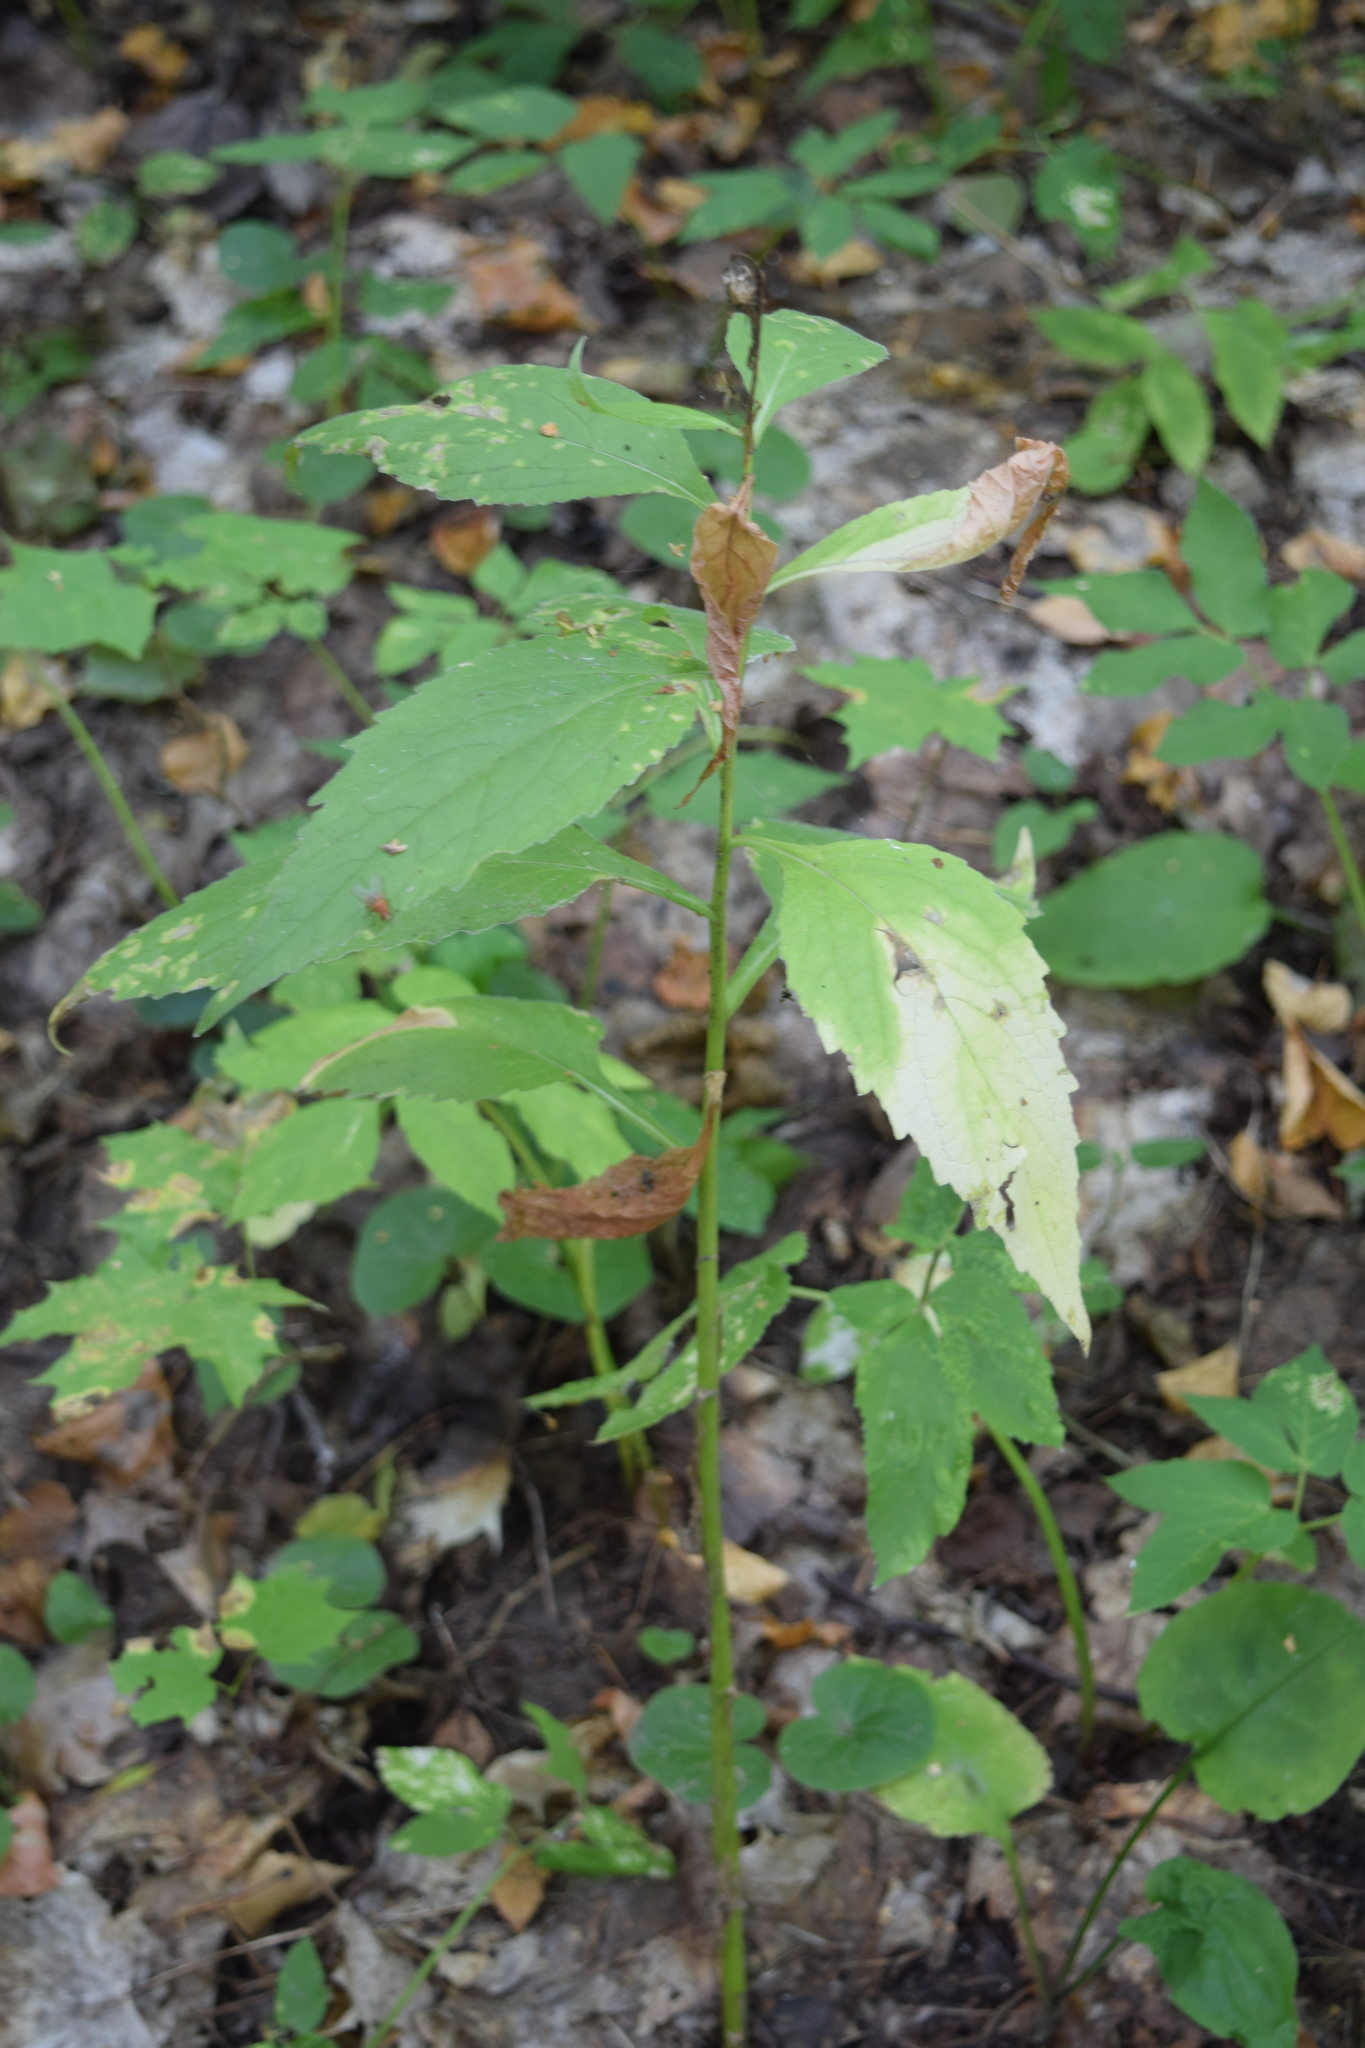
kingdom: Plantae
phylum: Tracheophyta
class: Magnoliopsida
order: Asterales
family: Campanulaceae
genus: Campanula
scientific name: Campanula latifolia
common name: Giant bellflower
